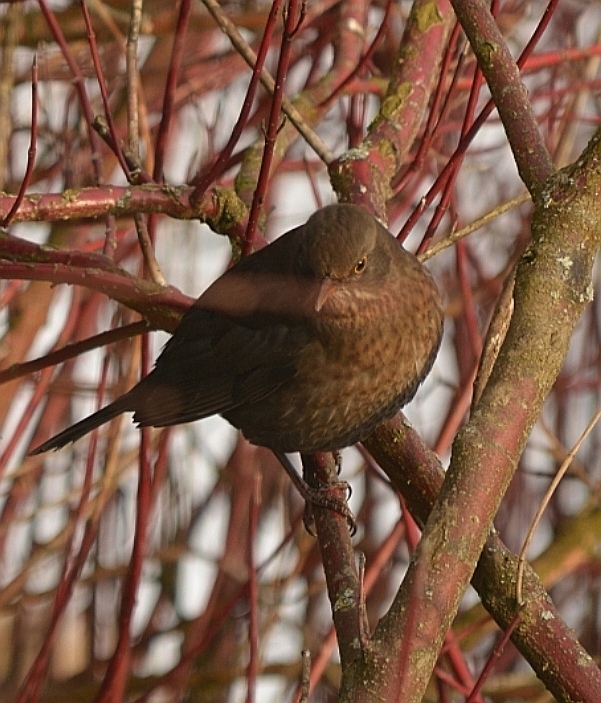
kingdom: Animalia
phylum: Chordata
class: Aves
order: Passeriformes
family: Turdidae
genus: Turdus
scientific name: Turdus merula
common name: Common blackbird
